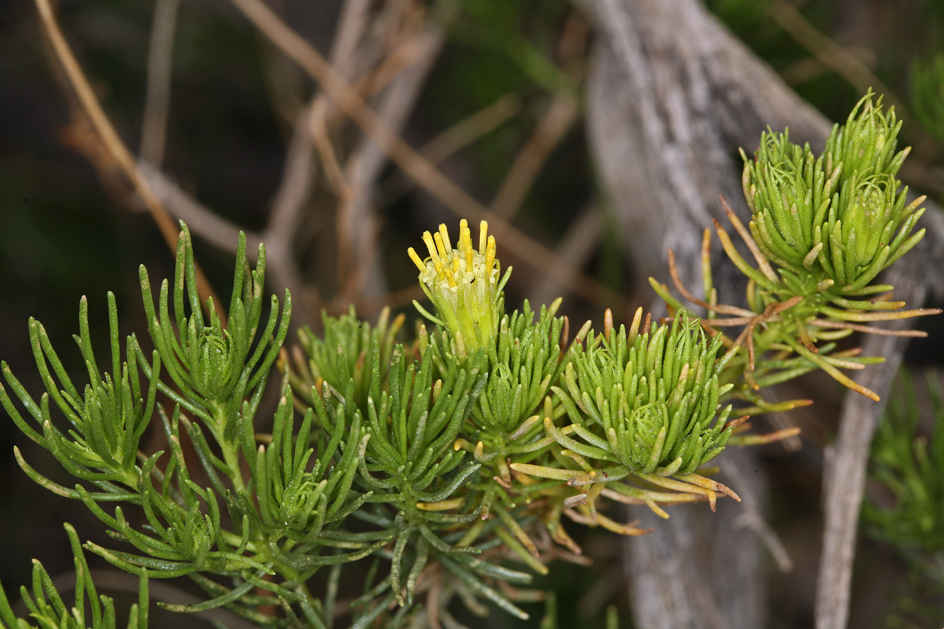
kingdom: Plantae
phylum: Tracheophyta
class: Magnoliopsida
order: Asterales
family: Asteraceae
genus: Peucephyllum
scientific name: Peucephyllum schottii
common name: Pygmy-cedar
